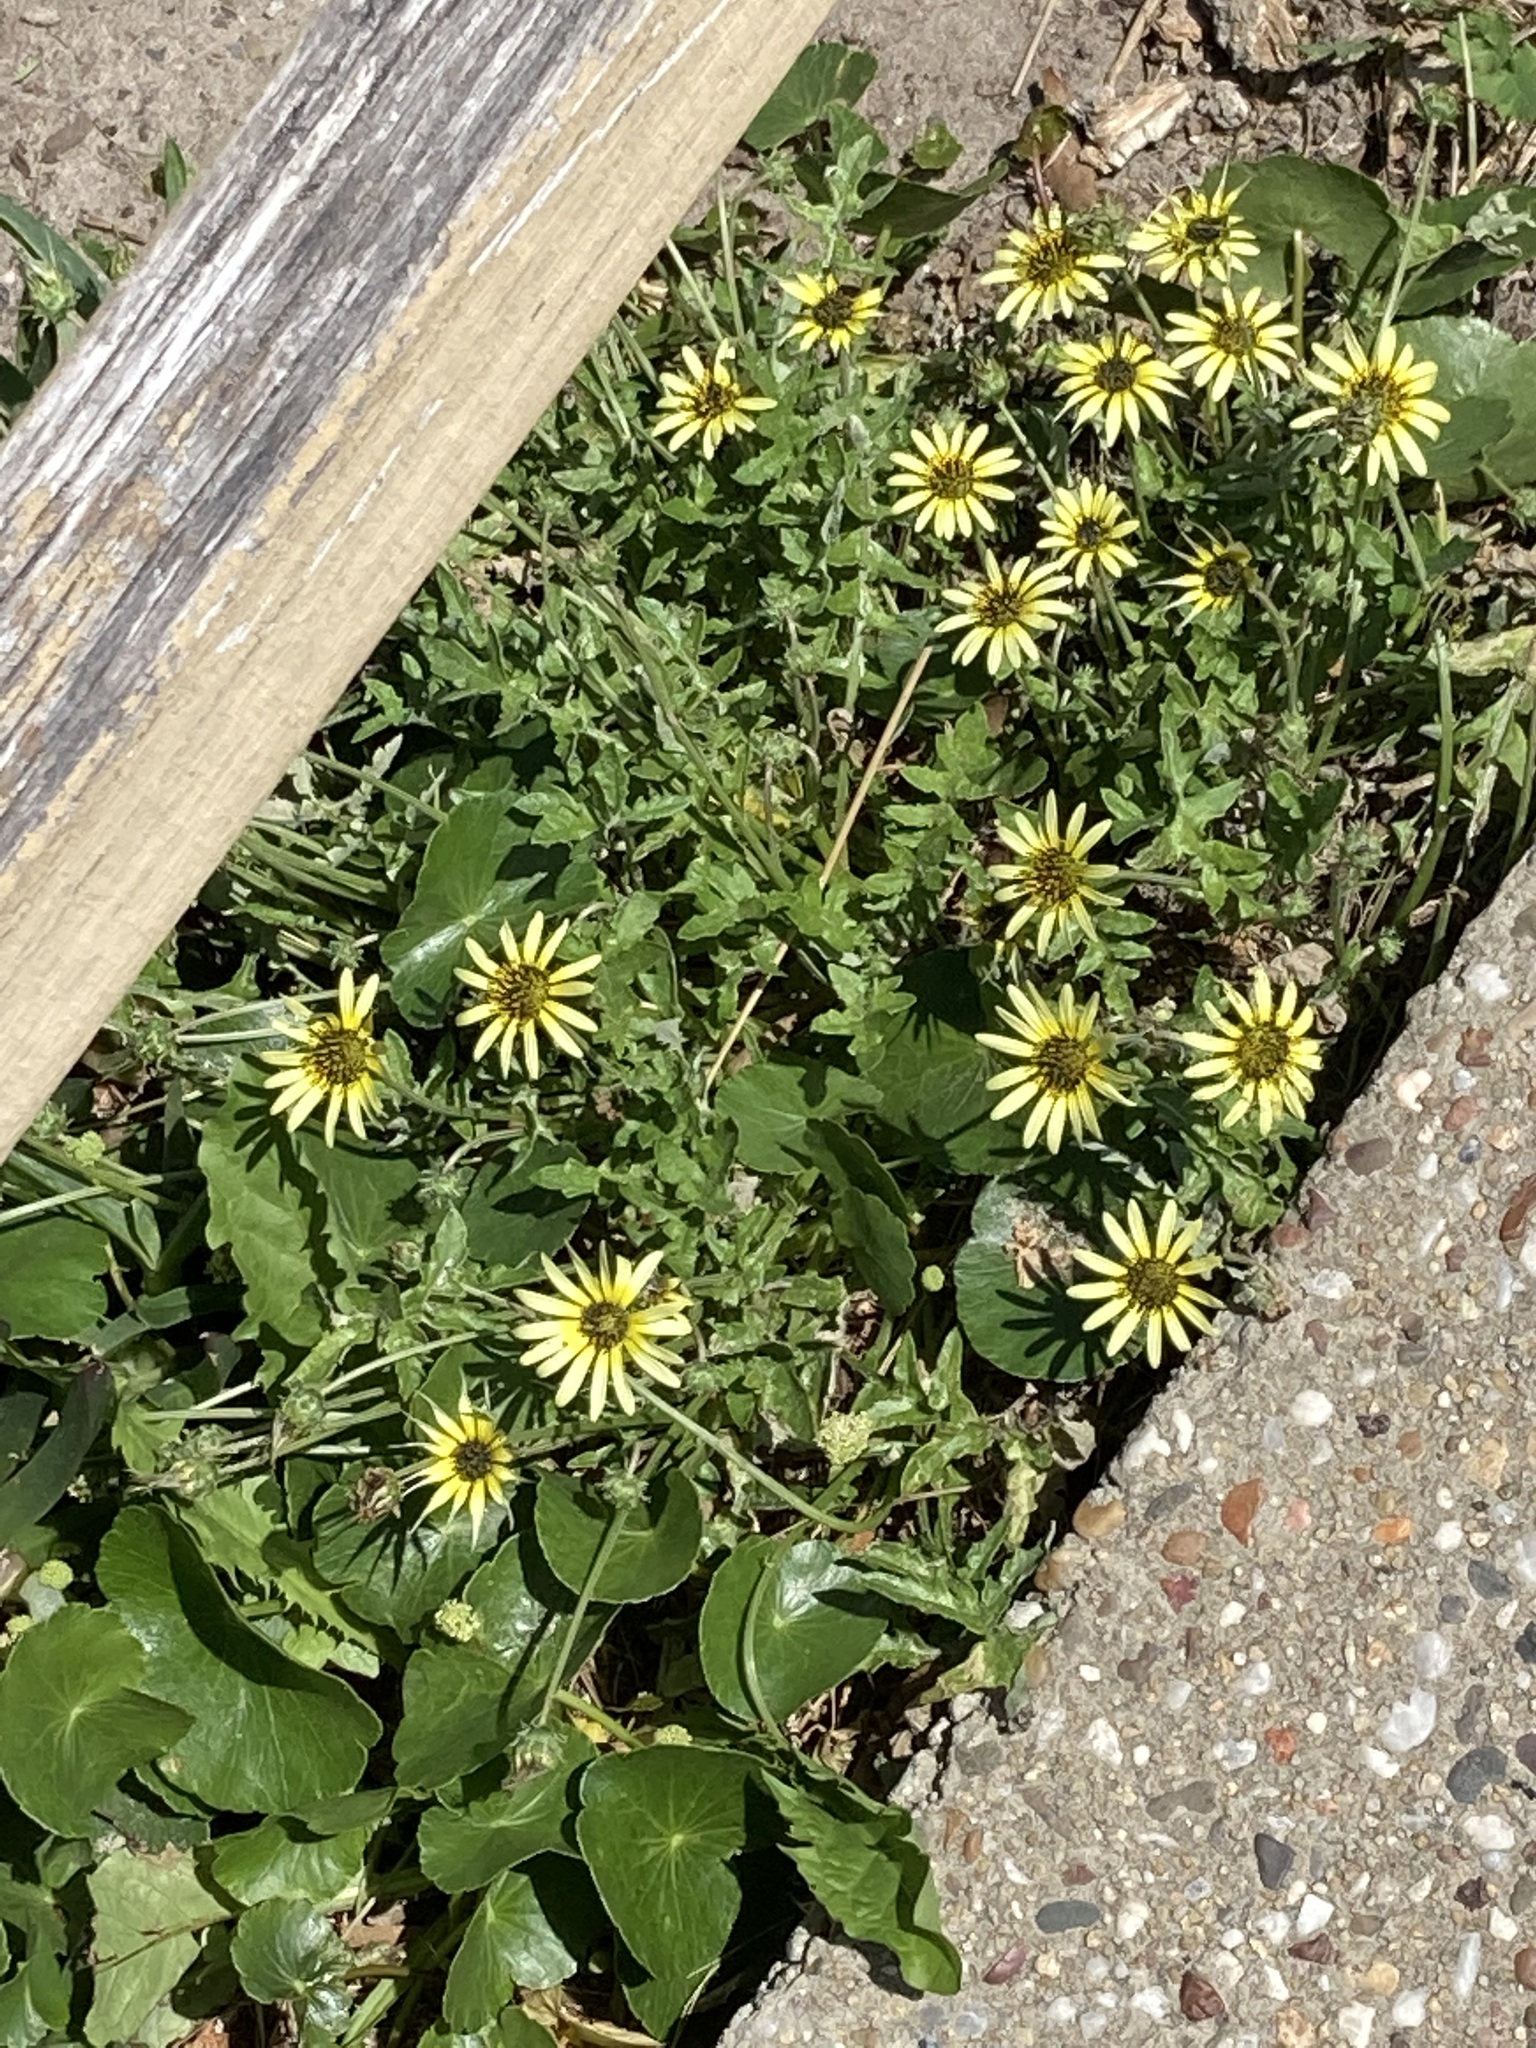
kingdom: Plantae
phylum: Tracheophyta
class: Magnoliopsida
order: Asterales
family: Asteraceae
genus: Arctotheca
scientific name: Arctotheca calendula
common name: Capeweed
